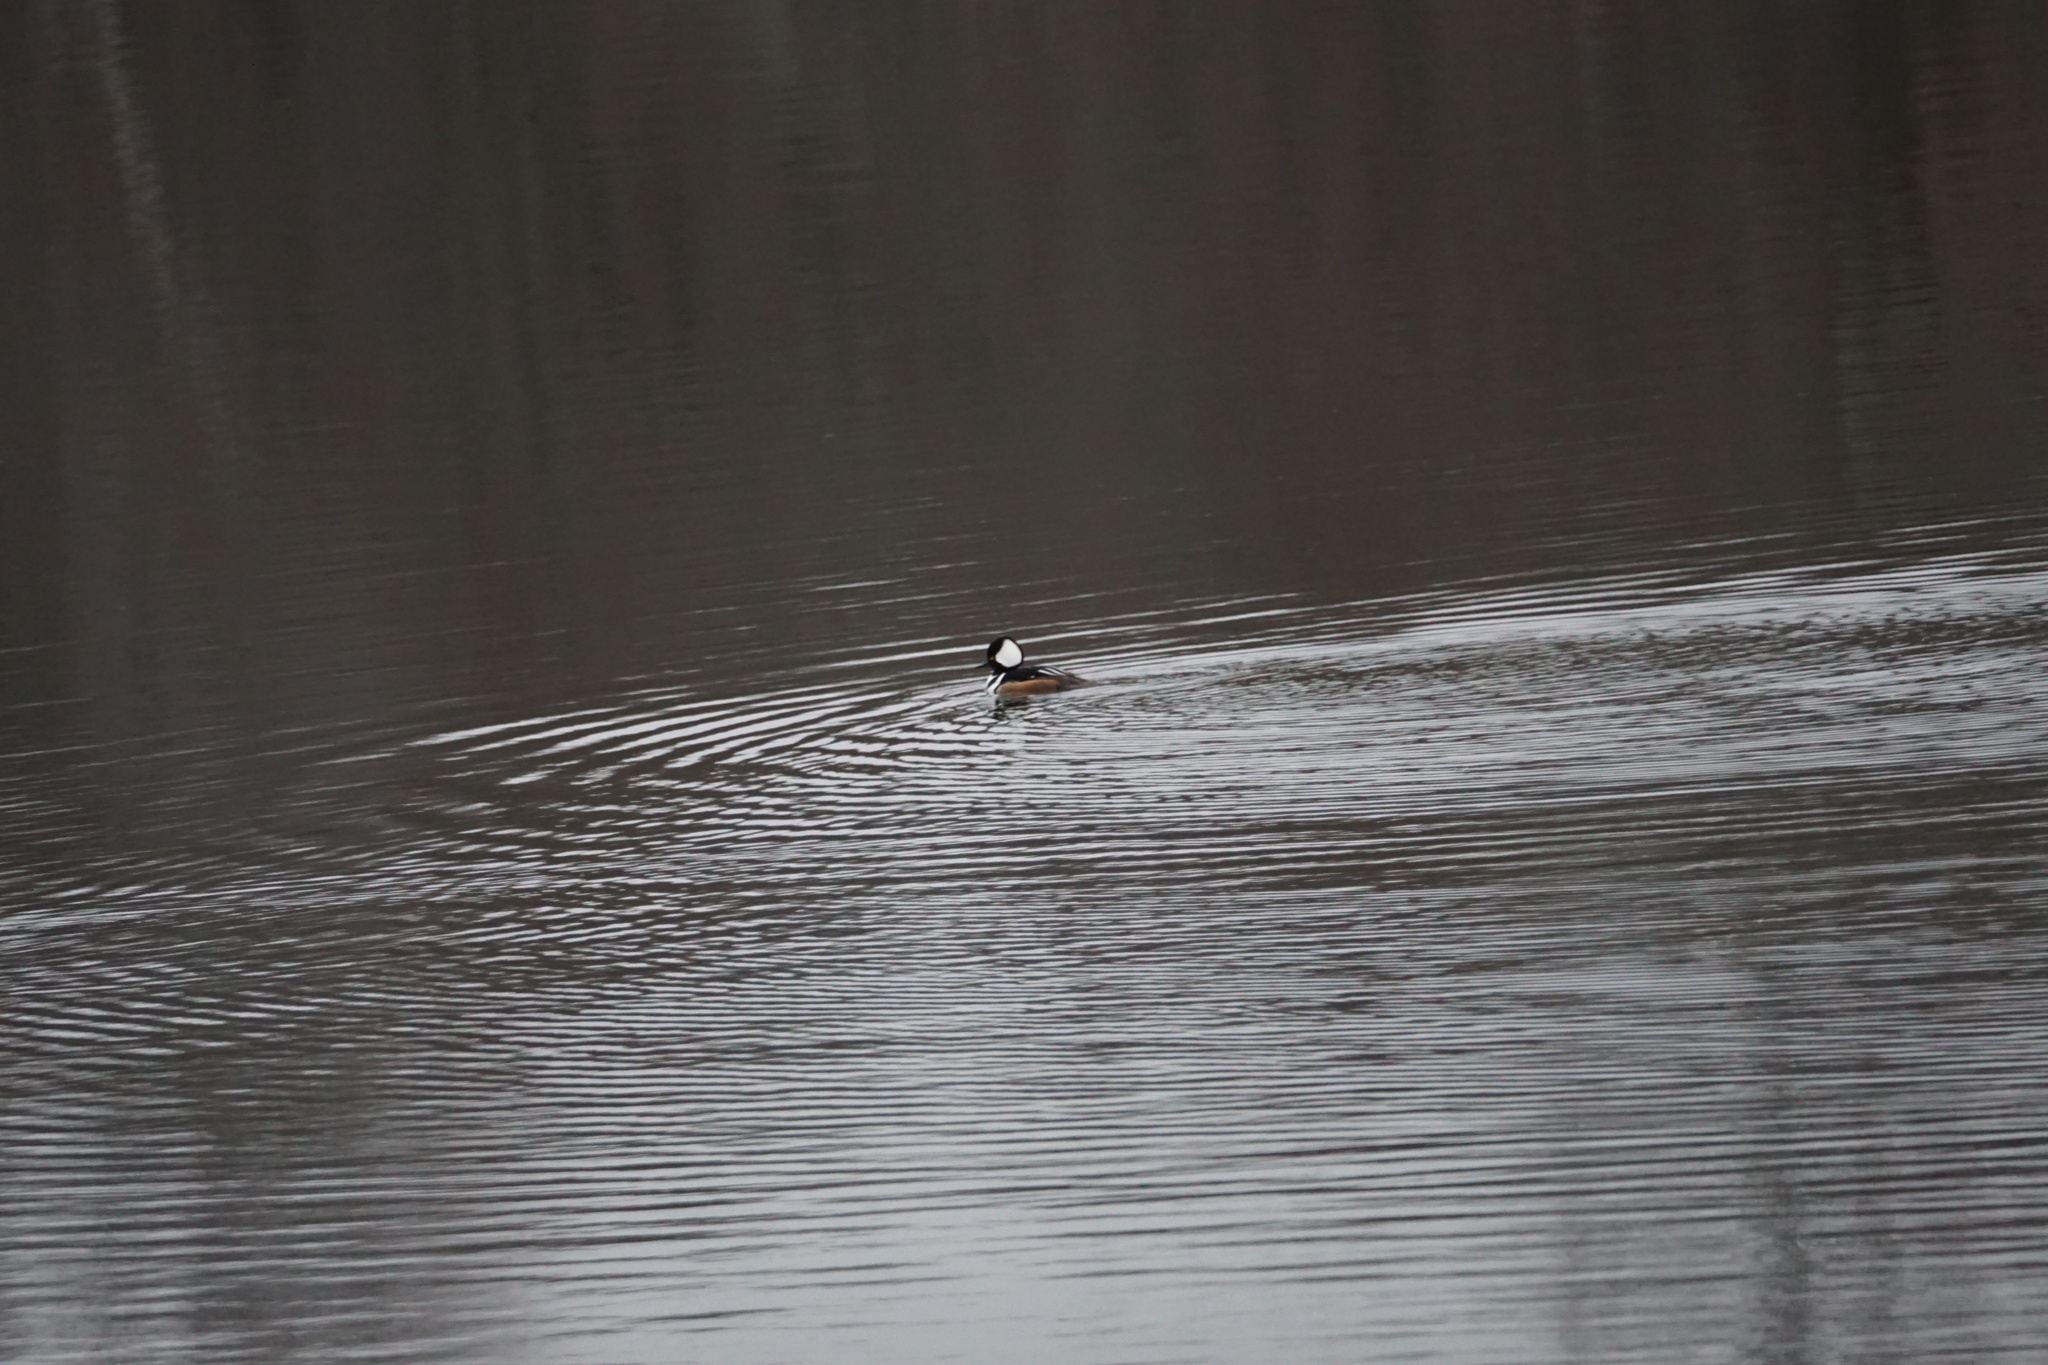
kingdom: Animalia
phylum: Chordata
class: Aves
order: Anseriformes
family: Anatidae
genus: Lophodytes
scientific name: Lophodytes cucullatus
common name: Hooded merganser
